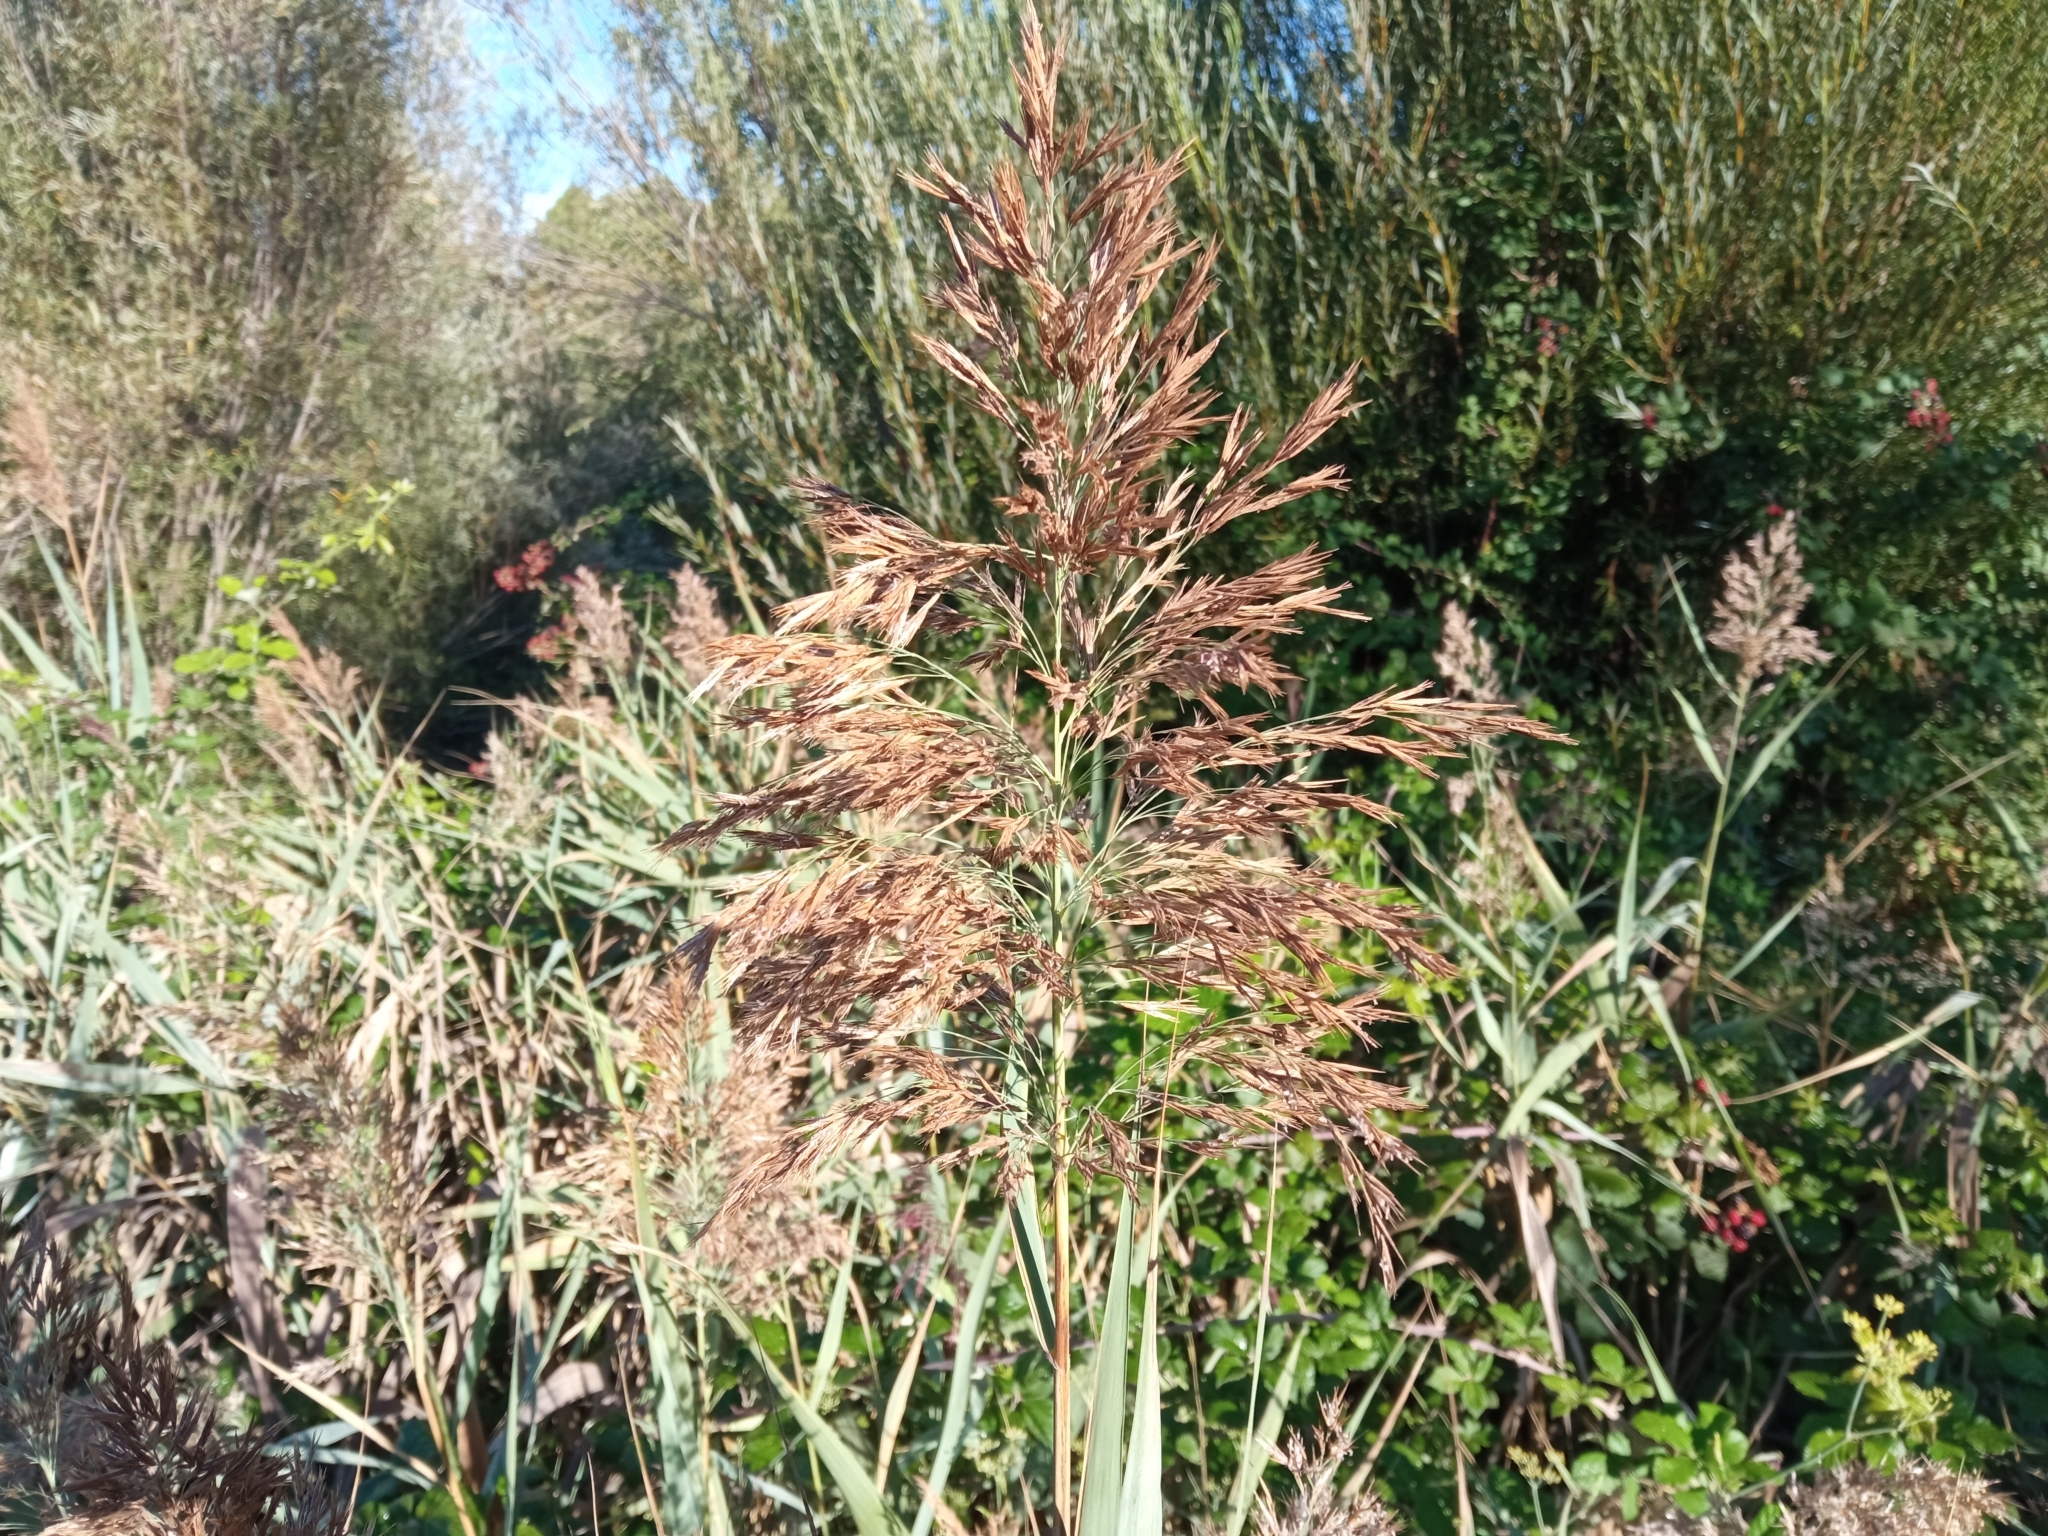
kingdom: Plantae
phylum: Tracheophyta
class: Liliopsida
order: Poales
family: Poaceae
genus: Phragmites
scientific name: Phragmites australis
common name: Common reed
